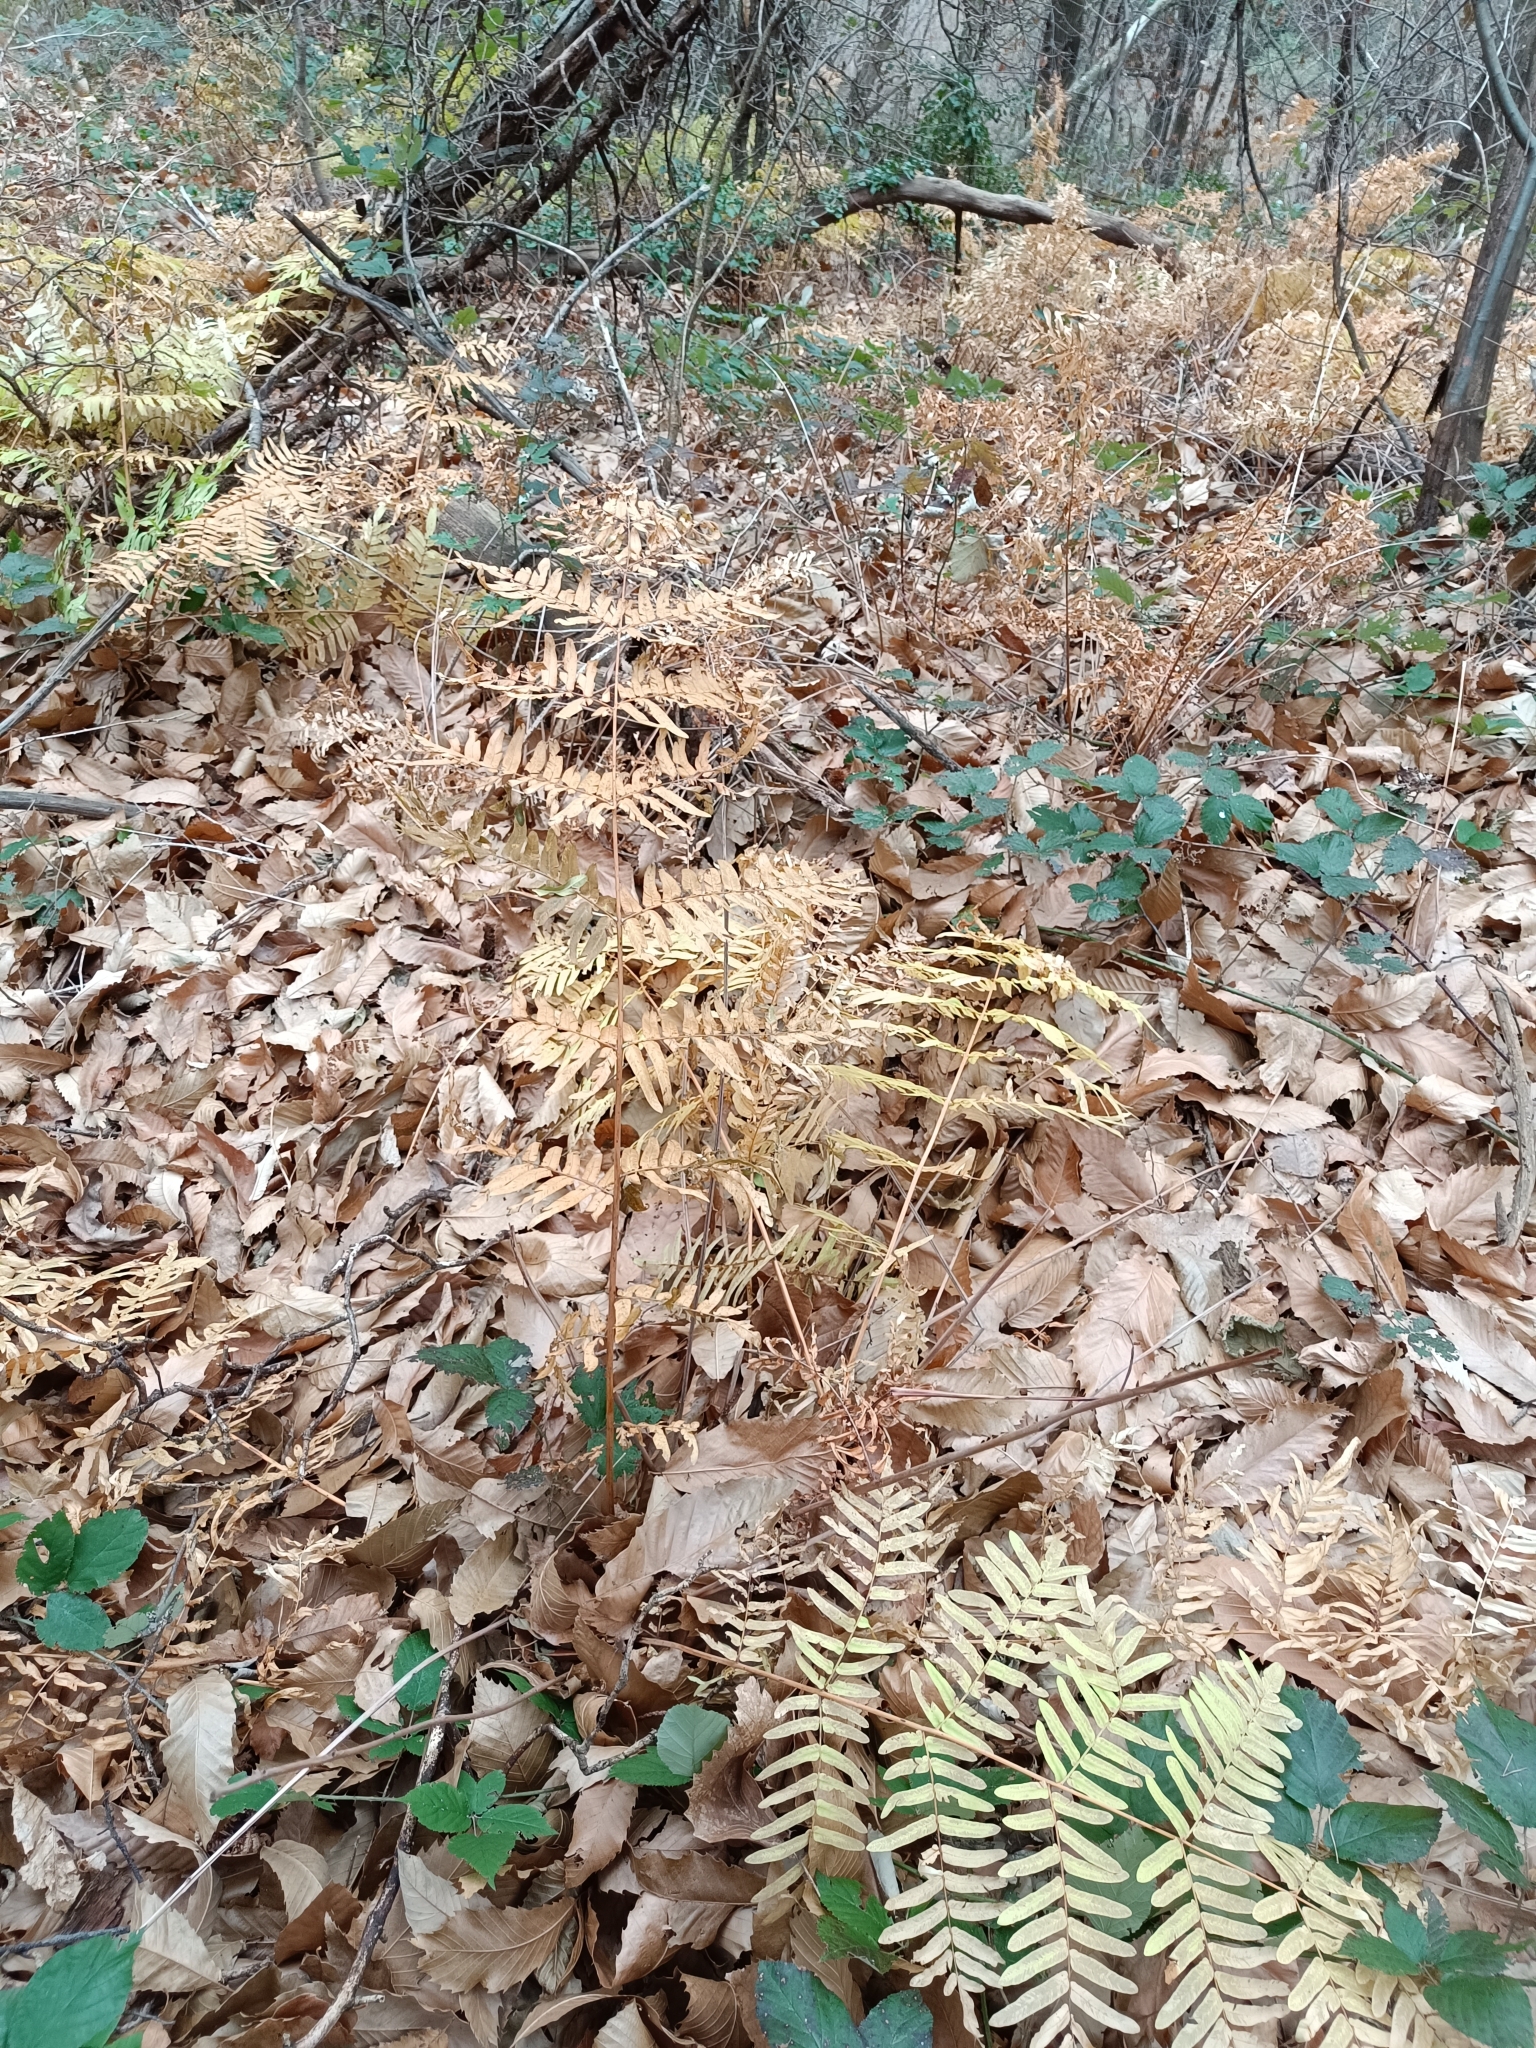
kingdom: Plantae
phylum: Tracheophyta
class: Polypodiopsida
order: Osmundales
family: Osmundaceae
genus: Osmunda
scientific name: Osmunda regalis
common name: Royal fern
